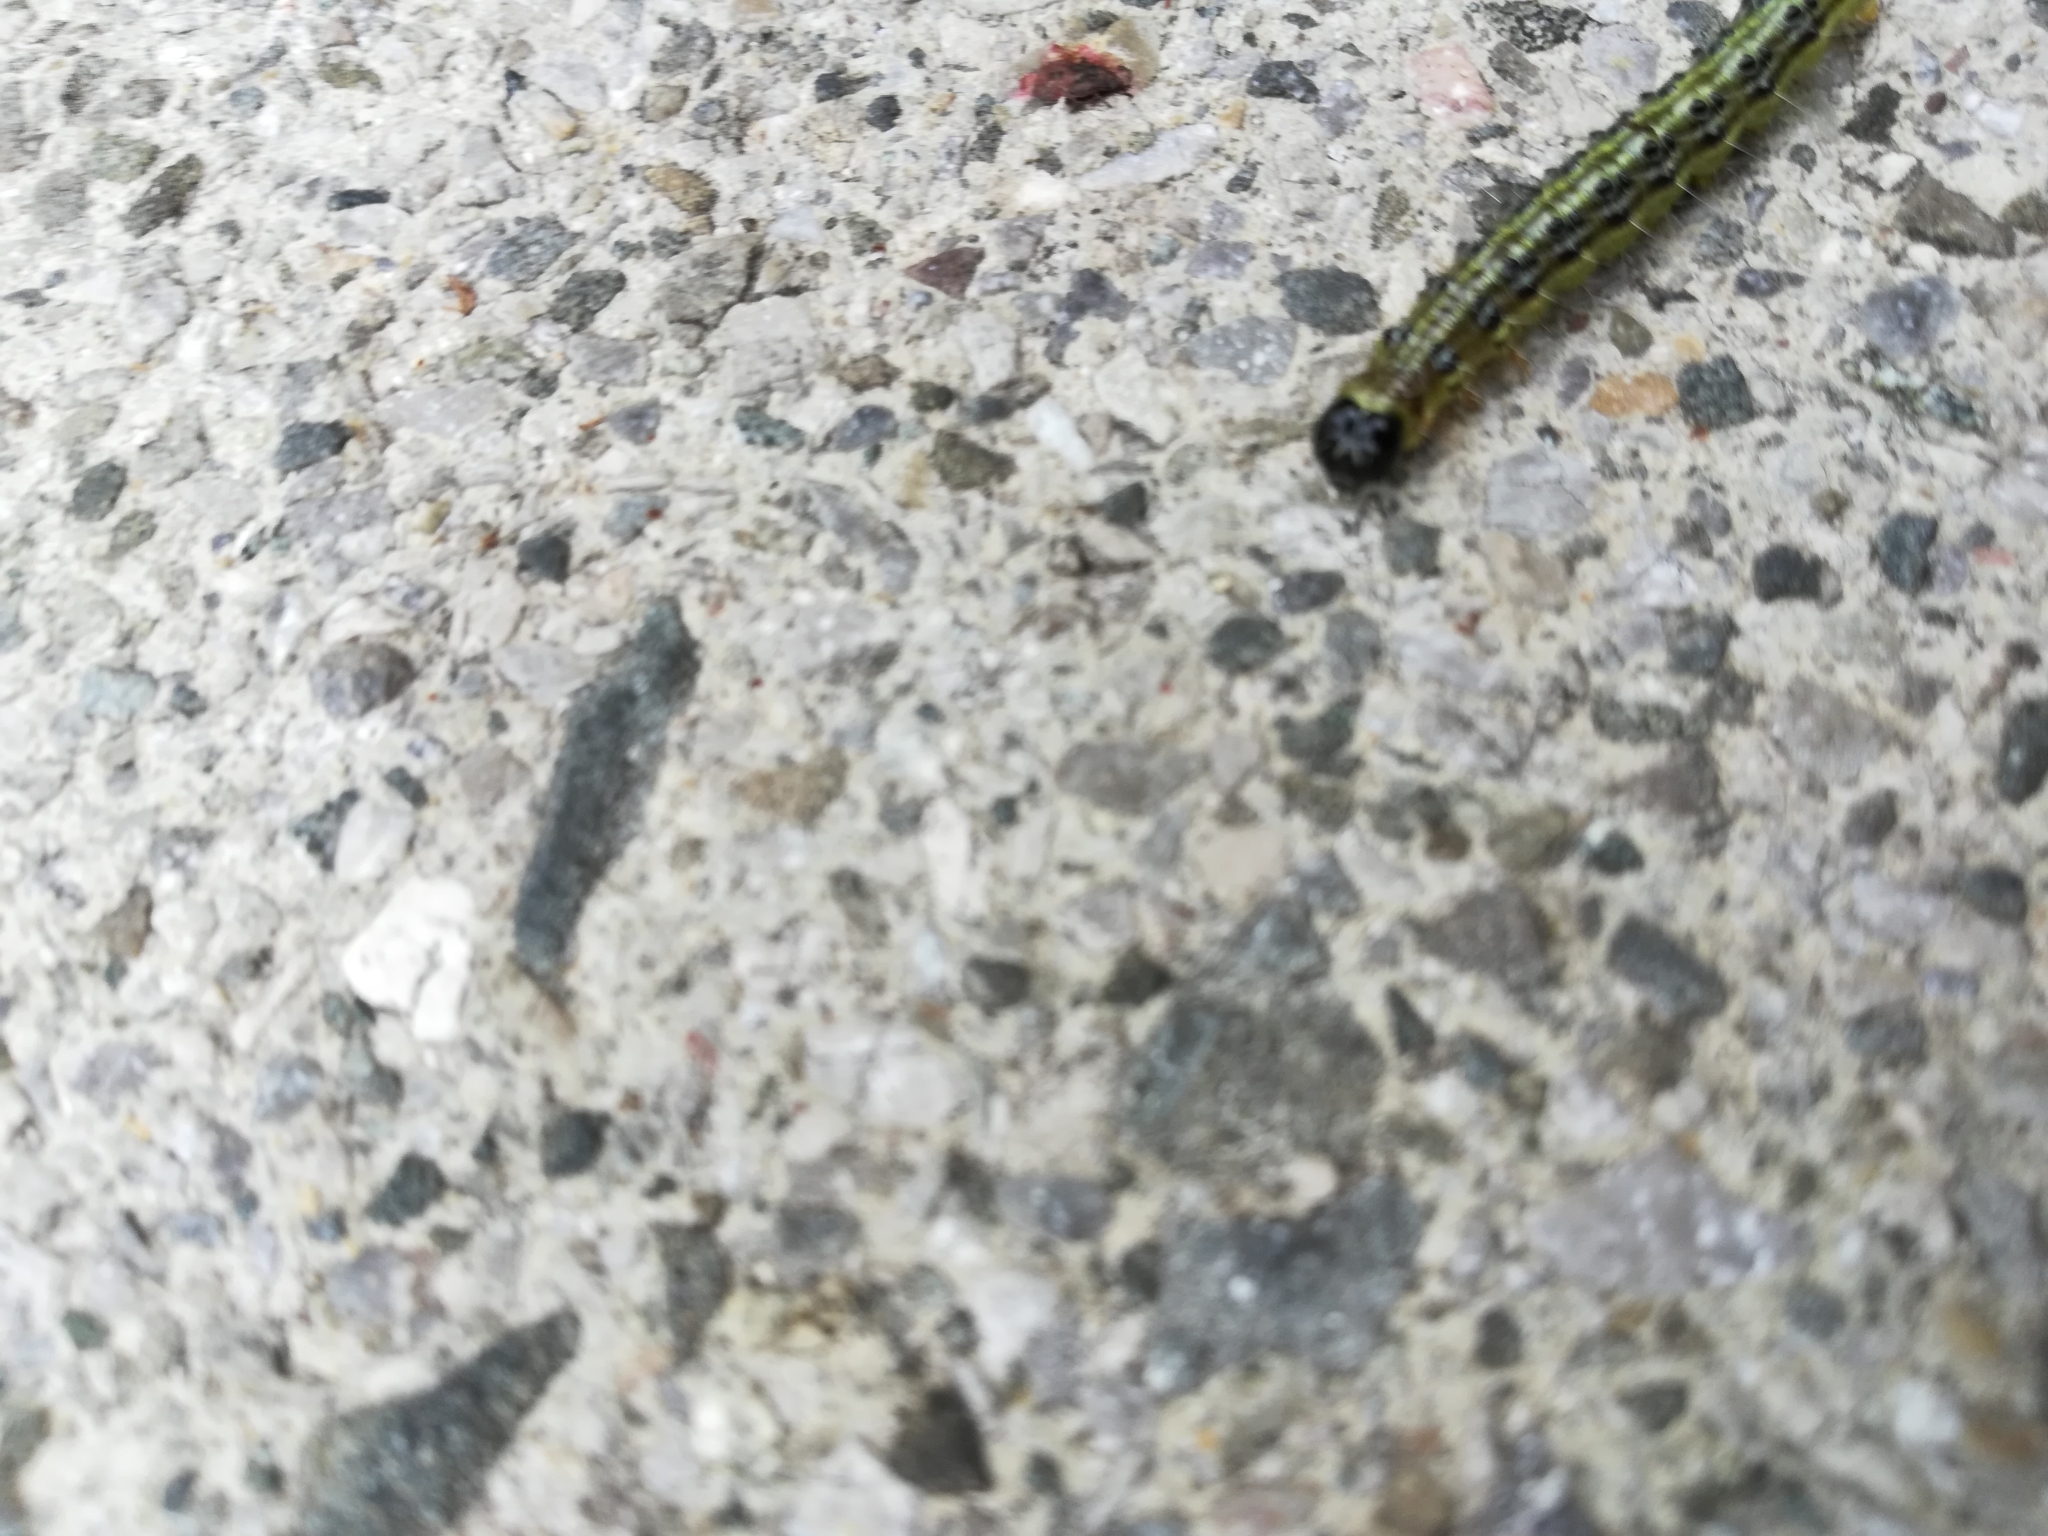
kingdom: Animalia
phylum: Arthropoda
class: Insecta
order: Lepidoptera
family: Crambidae
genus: Cydalima
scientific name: Cydalima perspectalis
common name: Box tree moth
